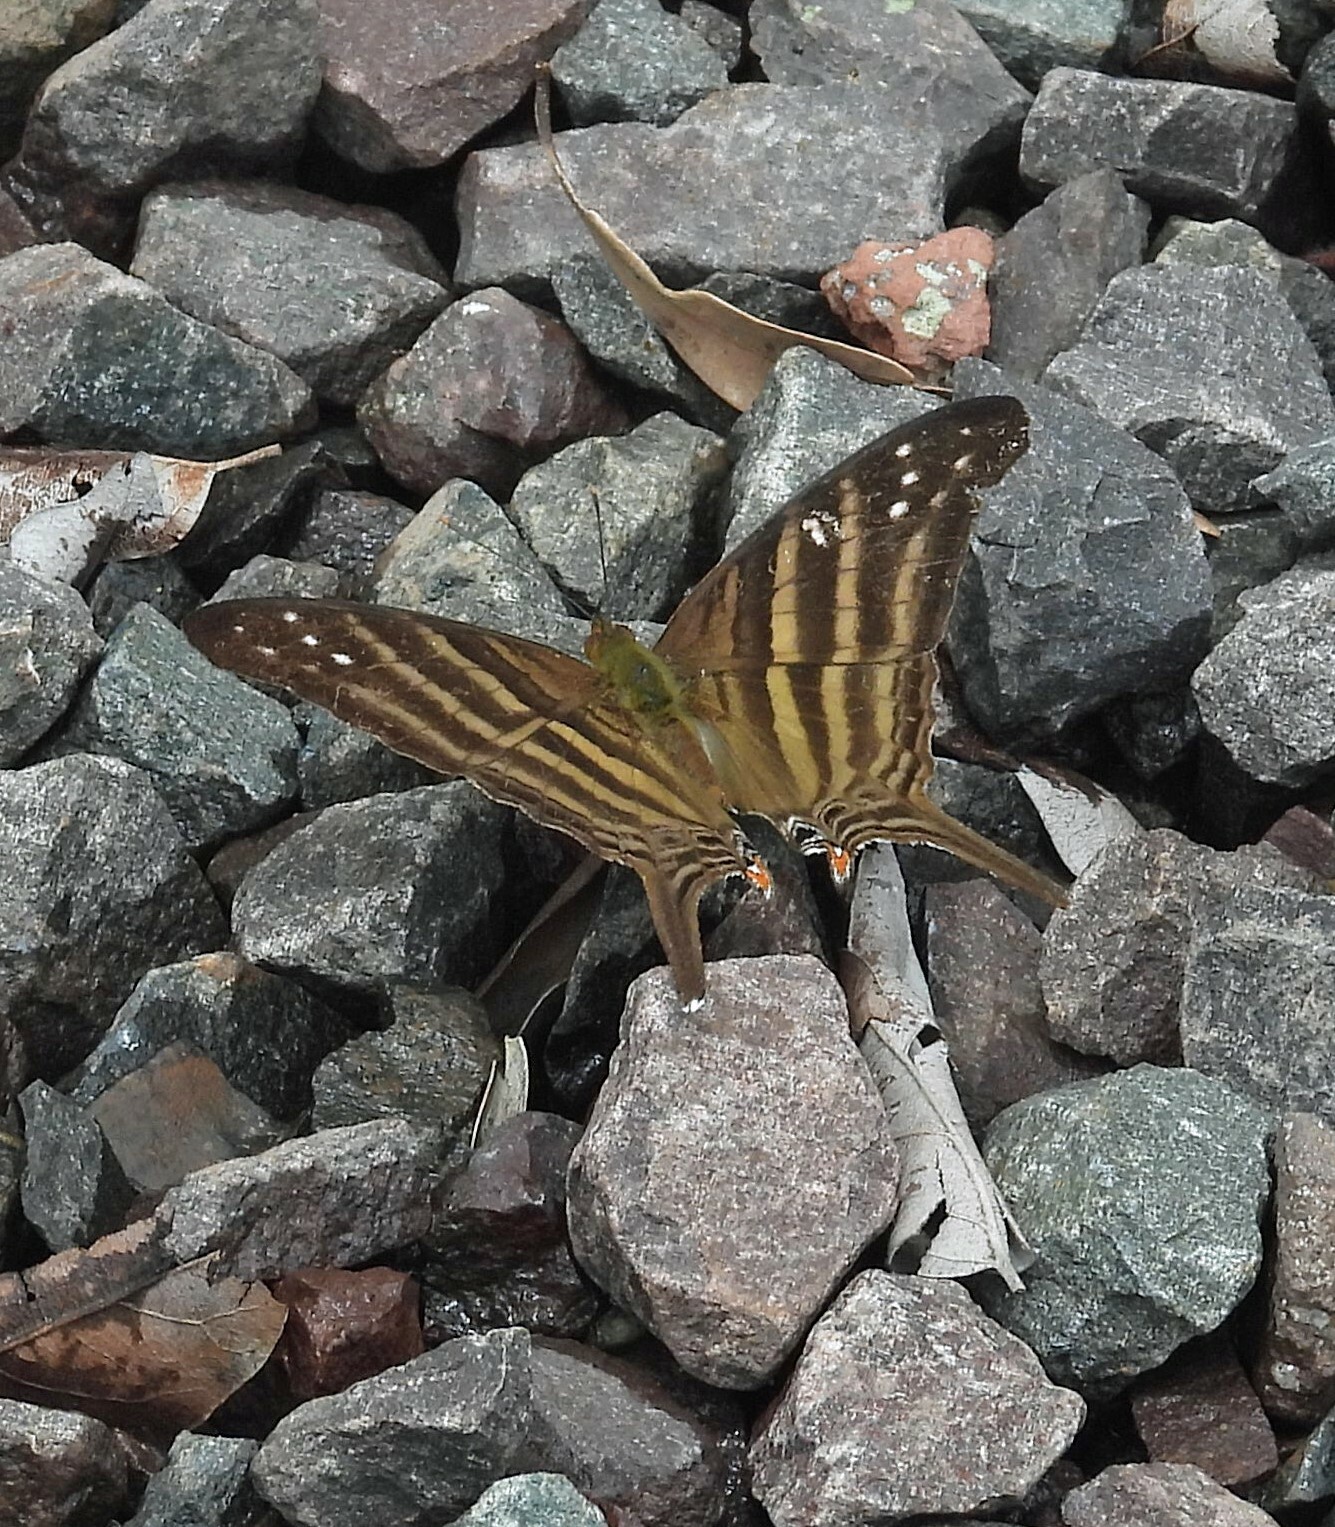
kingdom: Animalia
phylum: Arthropoda
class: Insecta
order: Lepidoptera
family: Nymphalidae
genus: Marpesia
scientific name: Marpesia chiron
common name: Many-banded daggerwing
